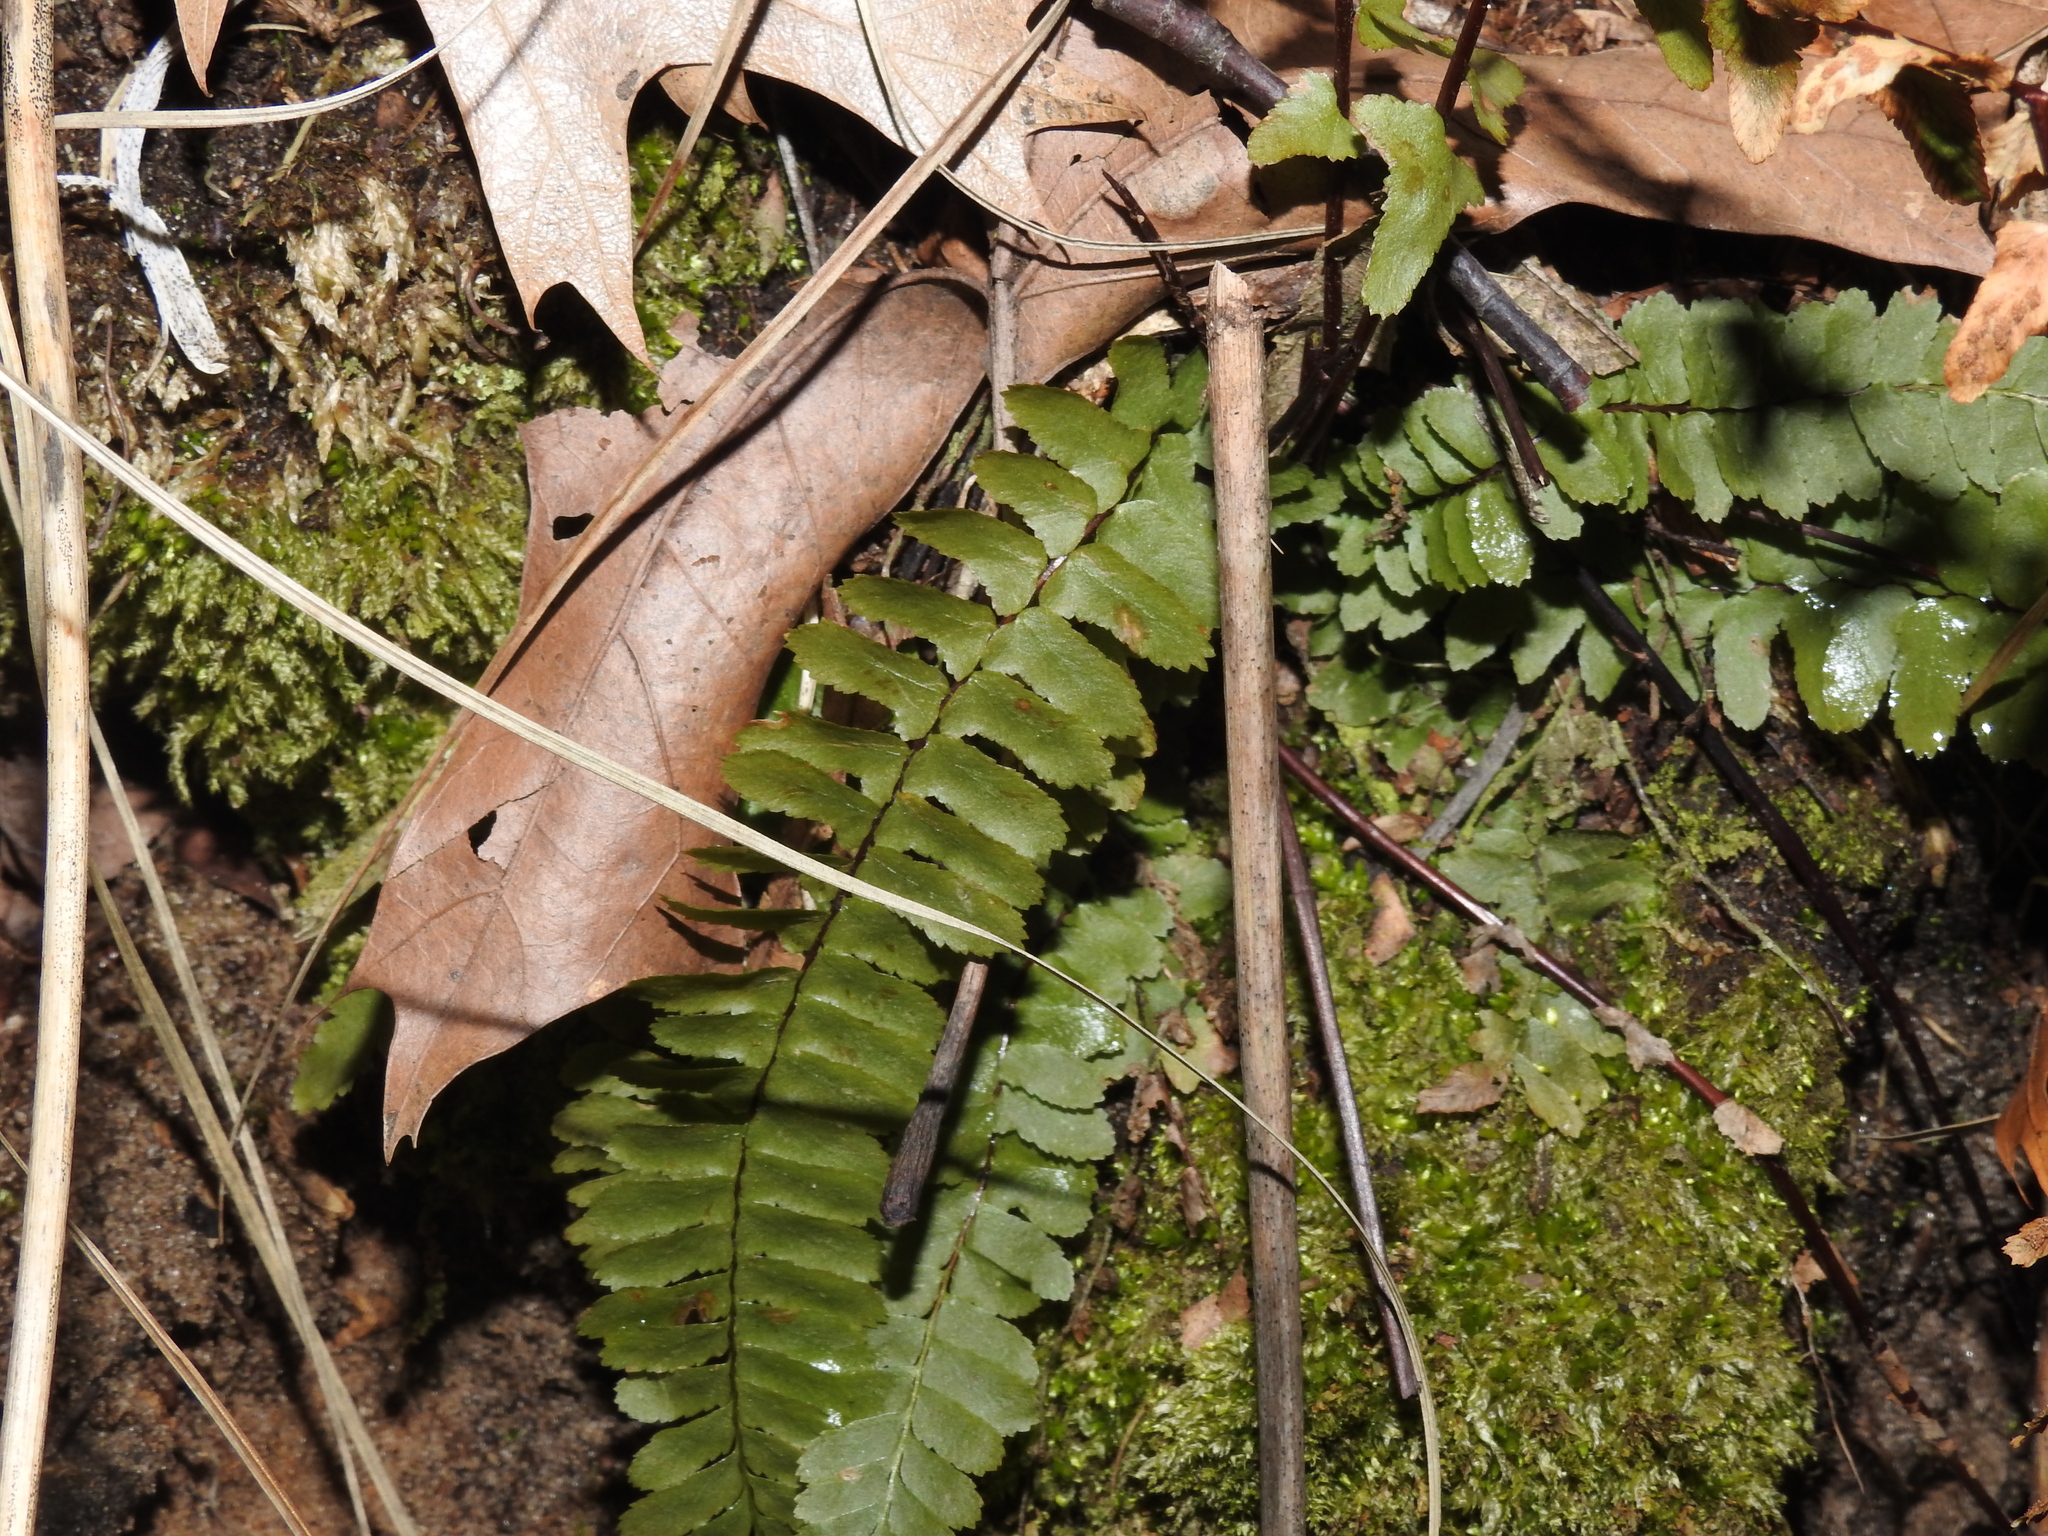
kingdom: Plantae
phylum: Tracheophyta
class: Polypodiopsida
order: Polypodiales
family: Aspleniaceae
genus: Asplenium
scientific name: Asplenium platyneuron
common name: Ebony spleenwort
